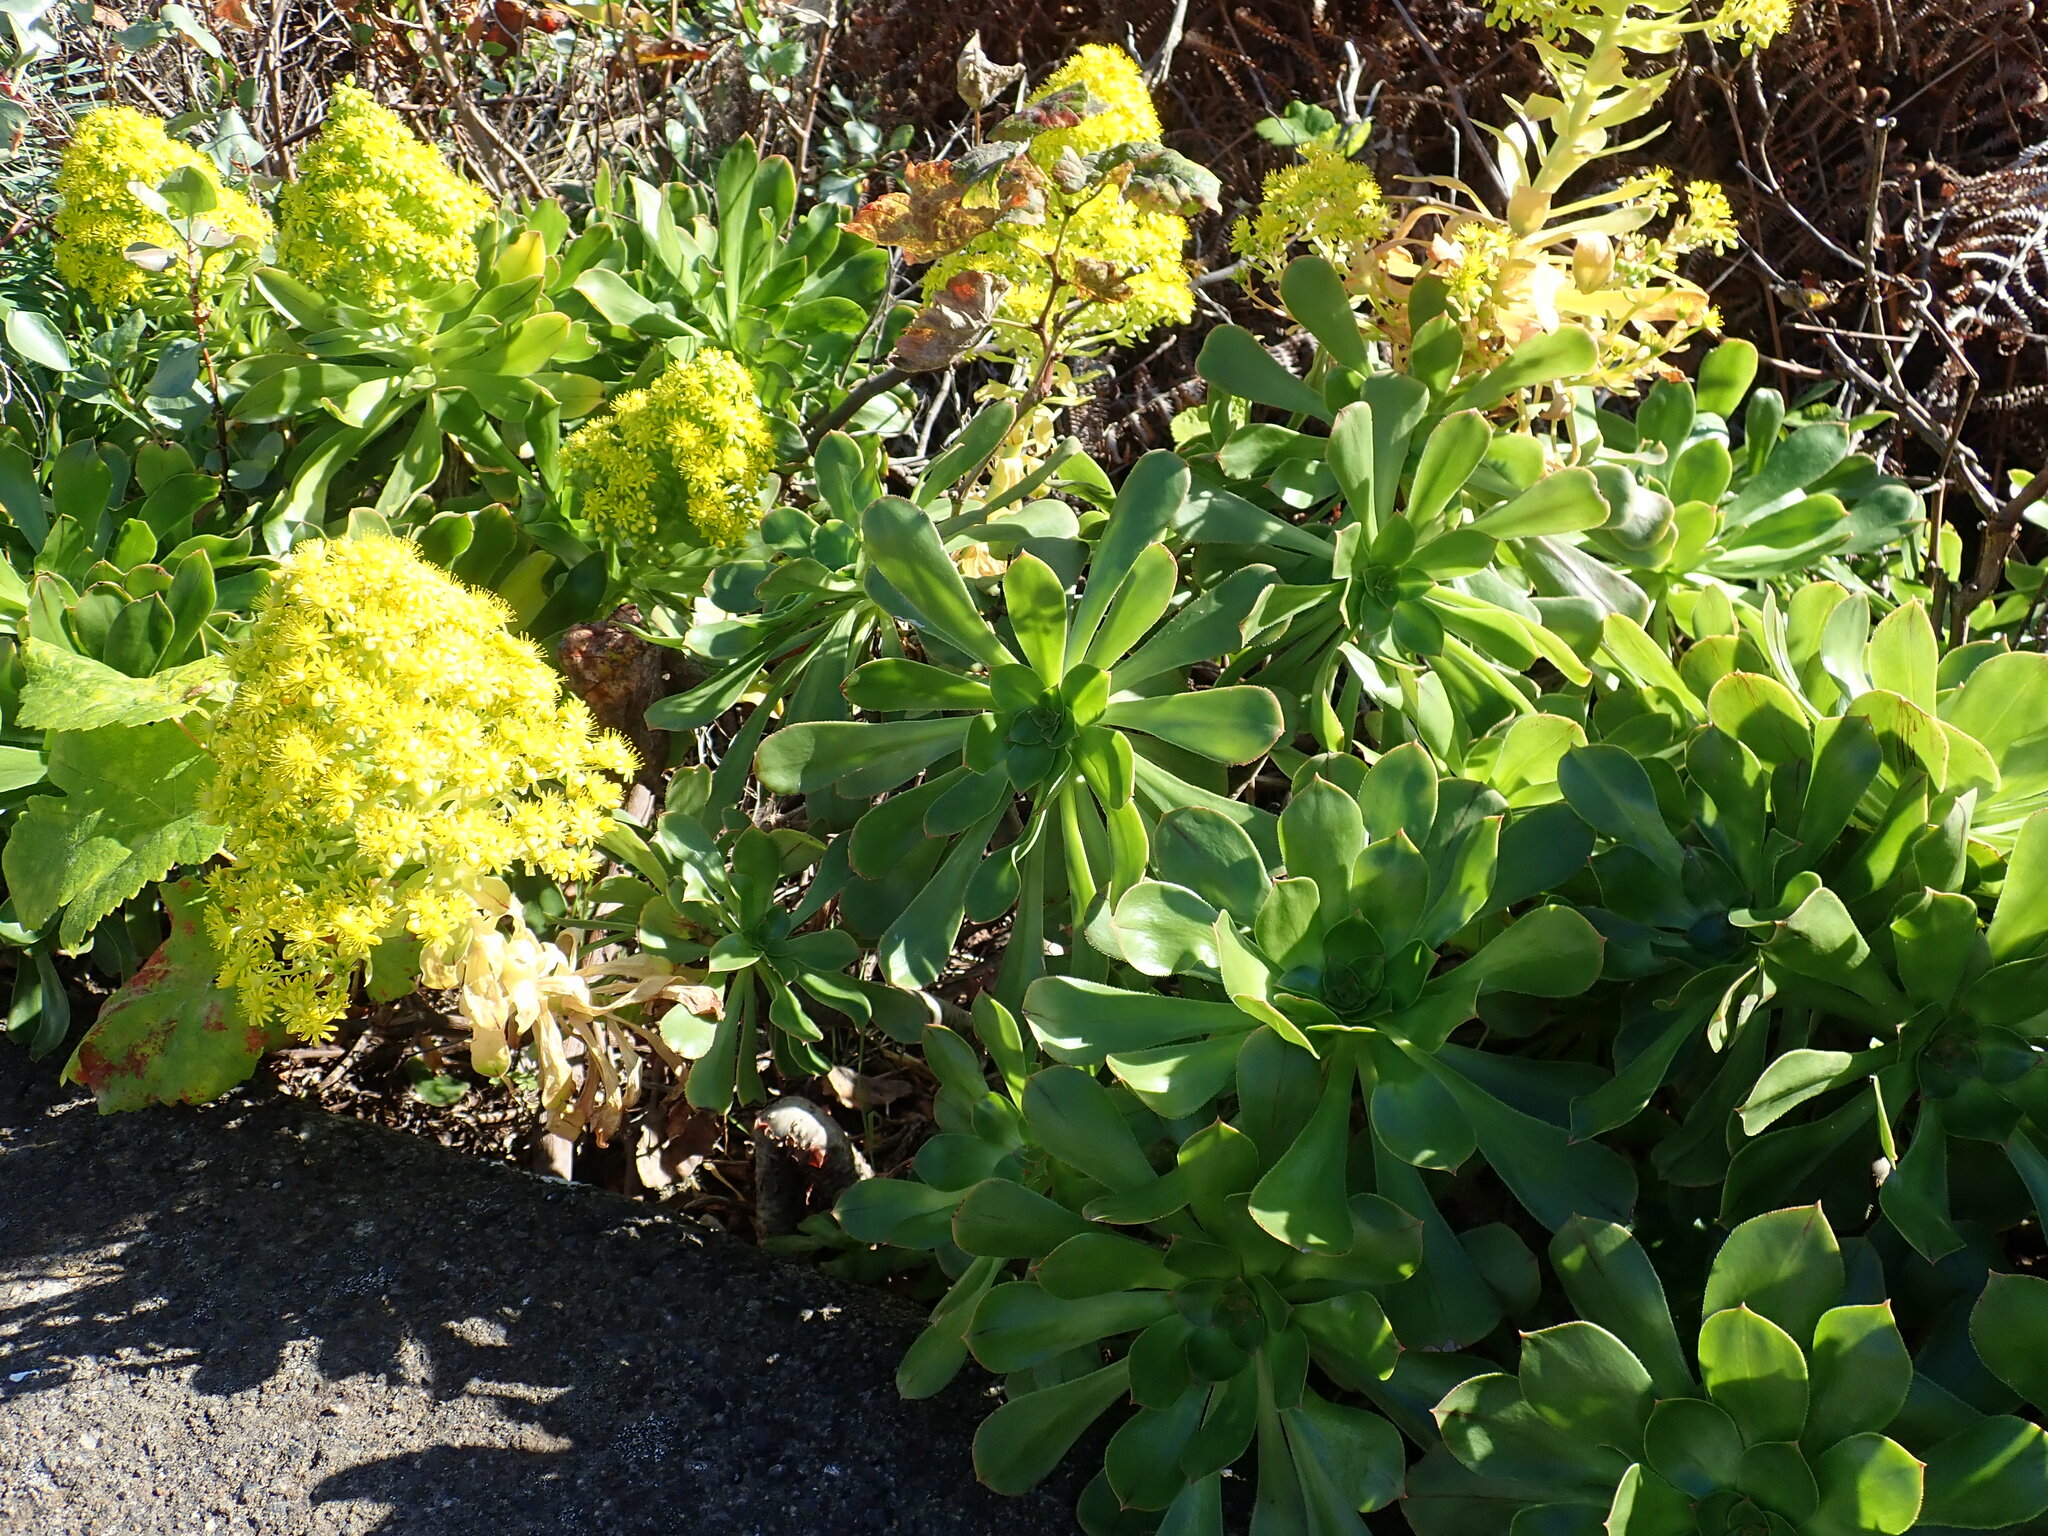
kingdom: Plantae
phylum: Tracheophyta
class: Magnoliopsida
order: Saxifragales
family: Crassulaceae
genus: Aeonium
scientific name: Aeonium arboreum
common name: Tree aeonium
